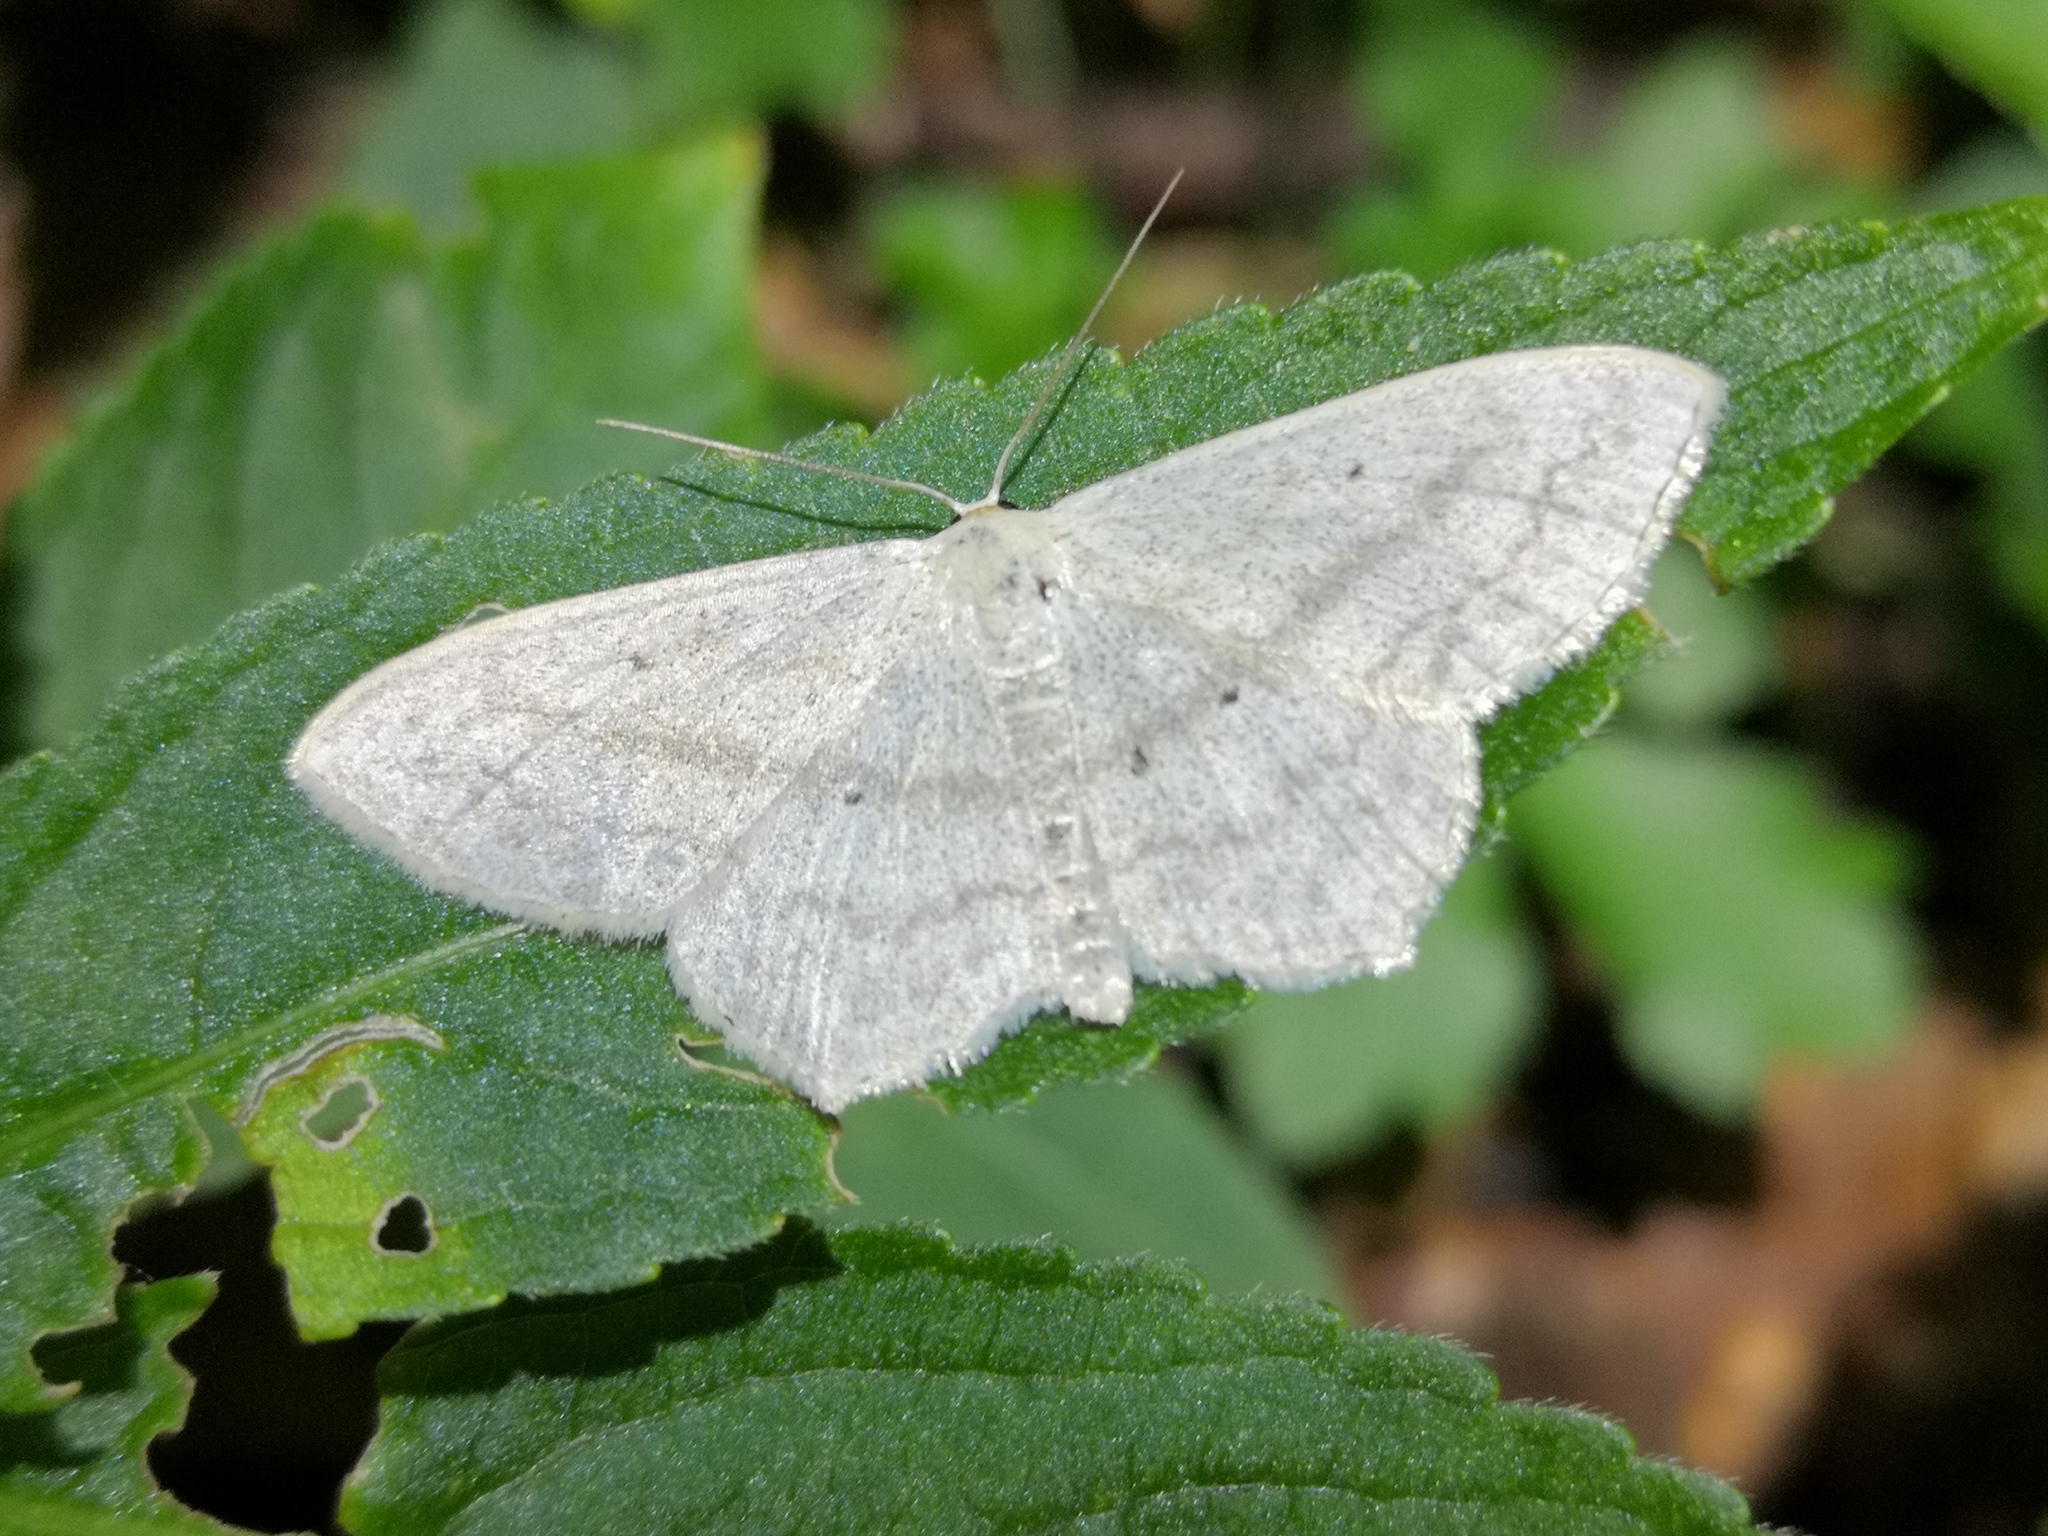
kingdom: Animalia
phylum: Arthropoda
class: Insecta
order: Lepidoptera
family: Geometridae
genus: Scopula
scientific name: Scopula nigropunctata
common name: Sub-angled wave
